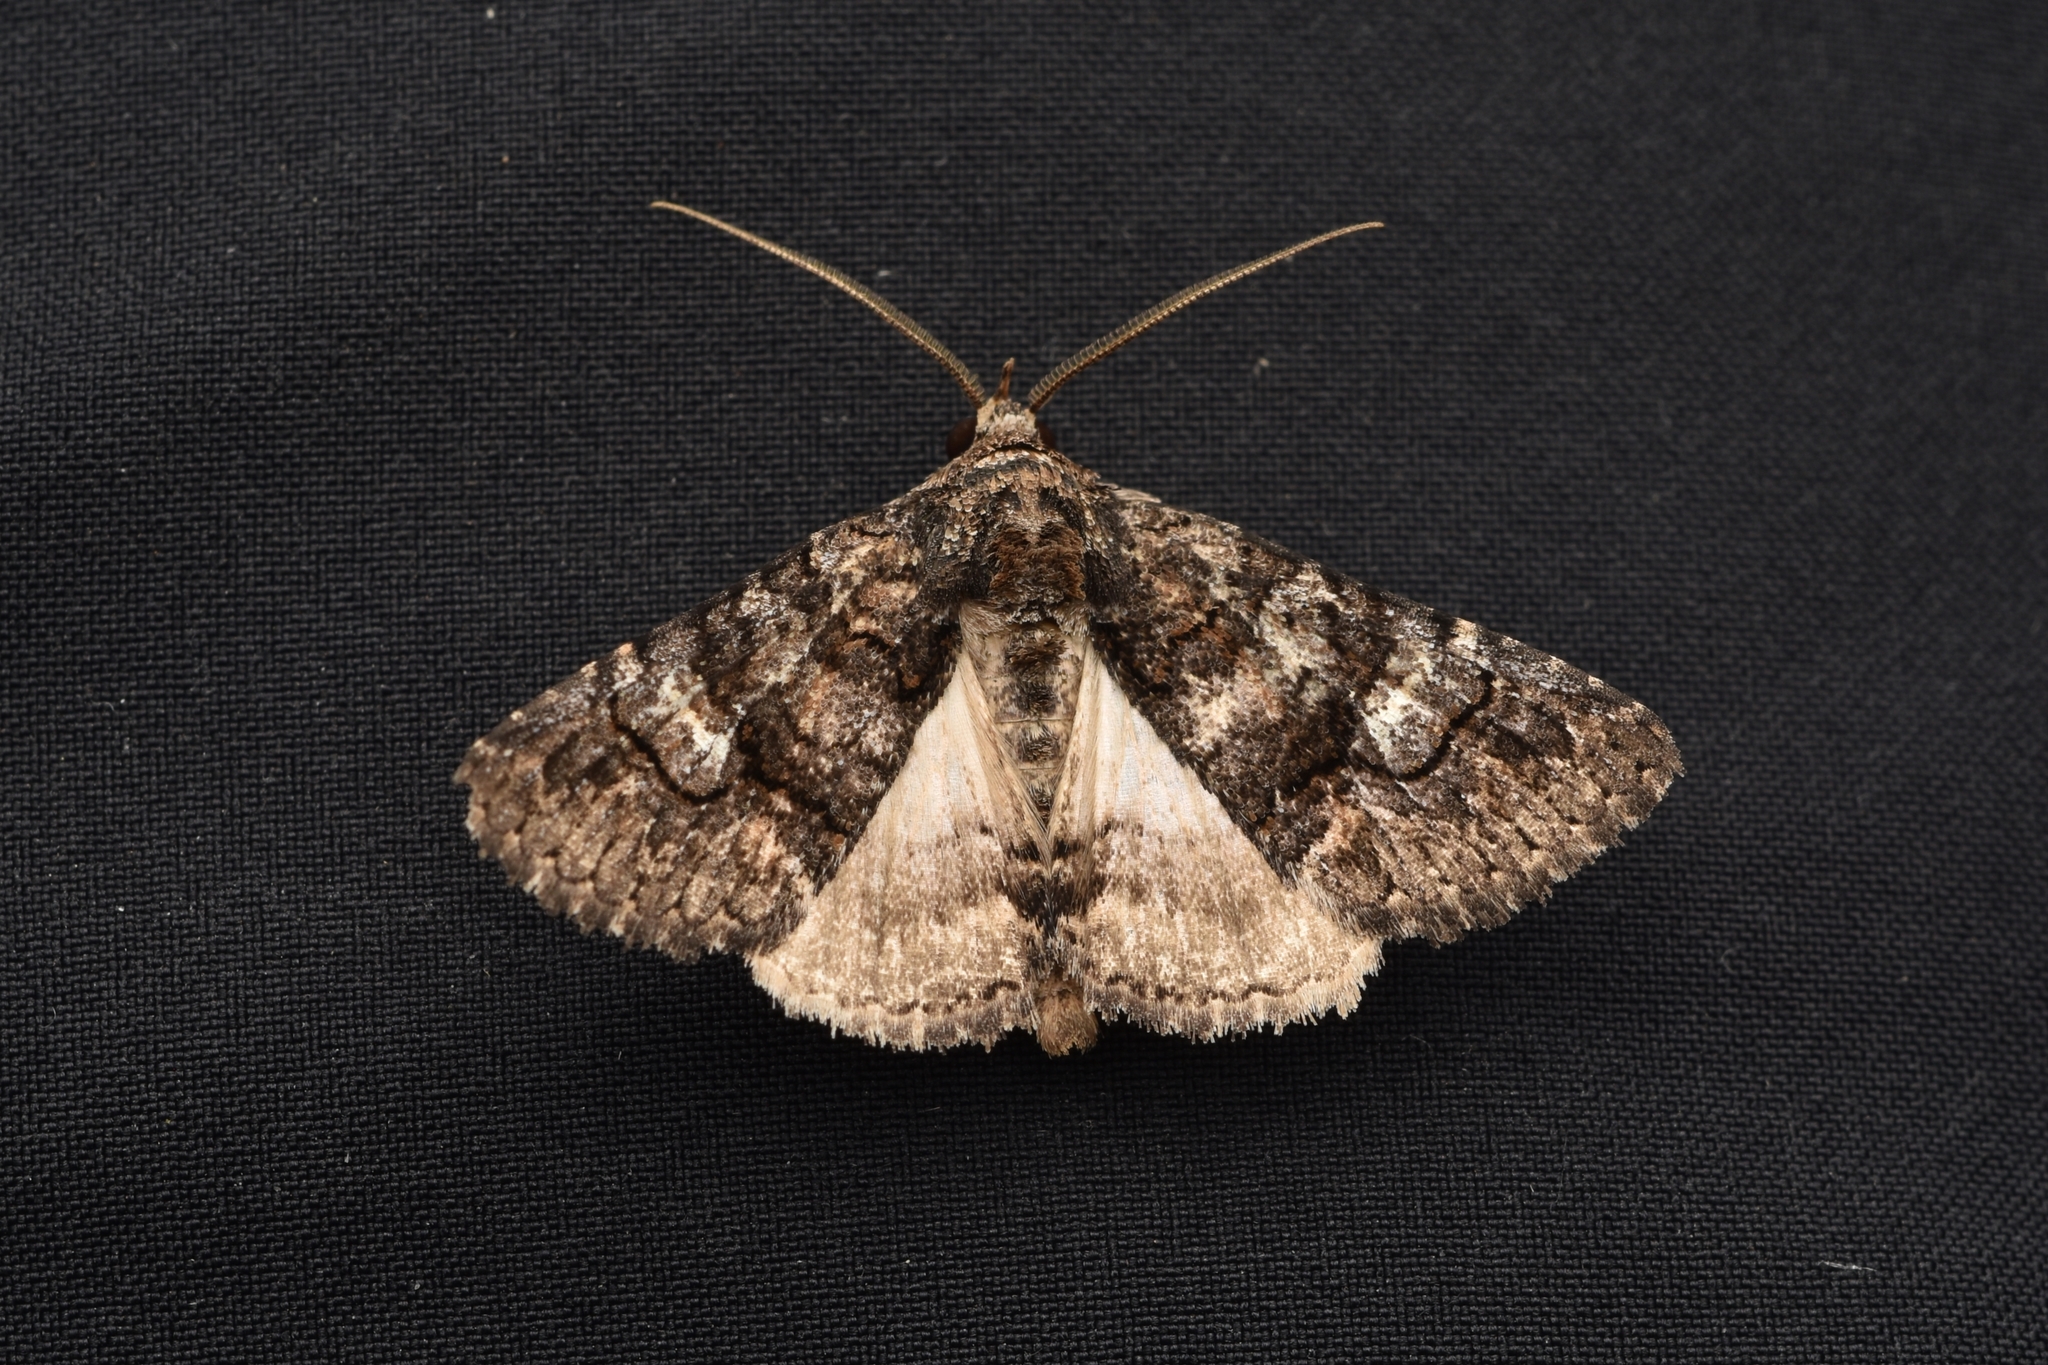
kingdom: Animalia
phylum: Arthropoda
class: Insecta
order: Lepidoptera
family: Erebidae
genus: Elousa
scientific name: Elousa mima
